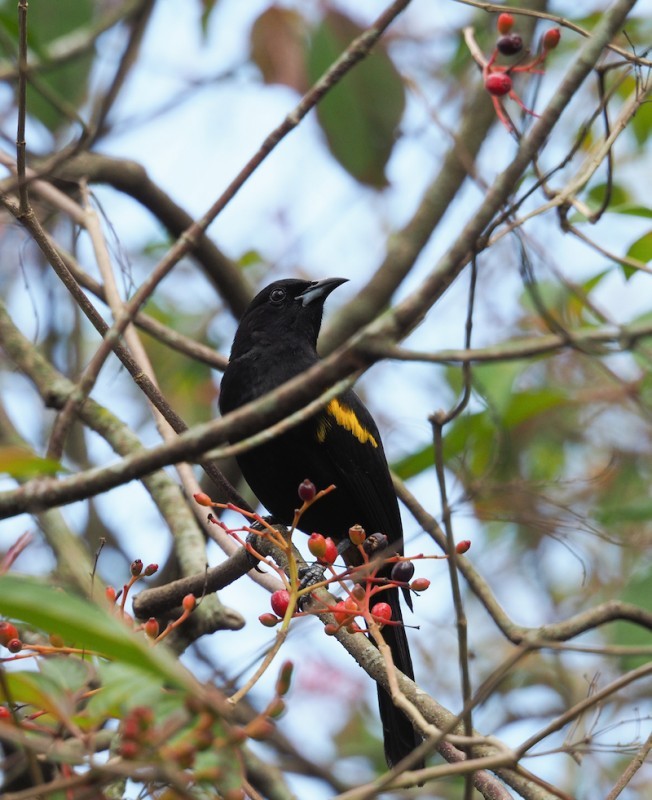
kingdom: Animalia
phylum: Chordata
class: Aves
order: Passeriformes
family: Icteridae
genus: Icterus
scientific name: Icterus dominicensis
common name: Hispaniolan oriole
